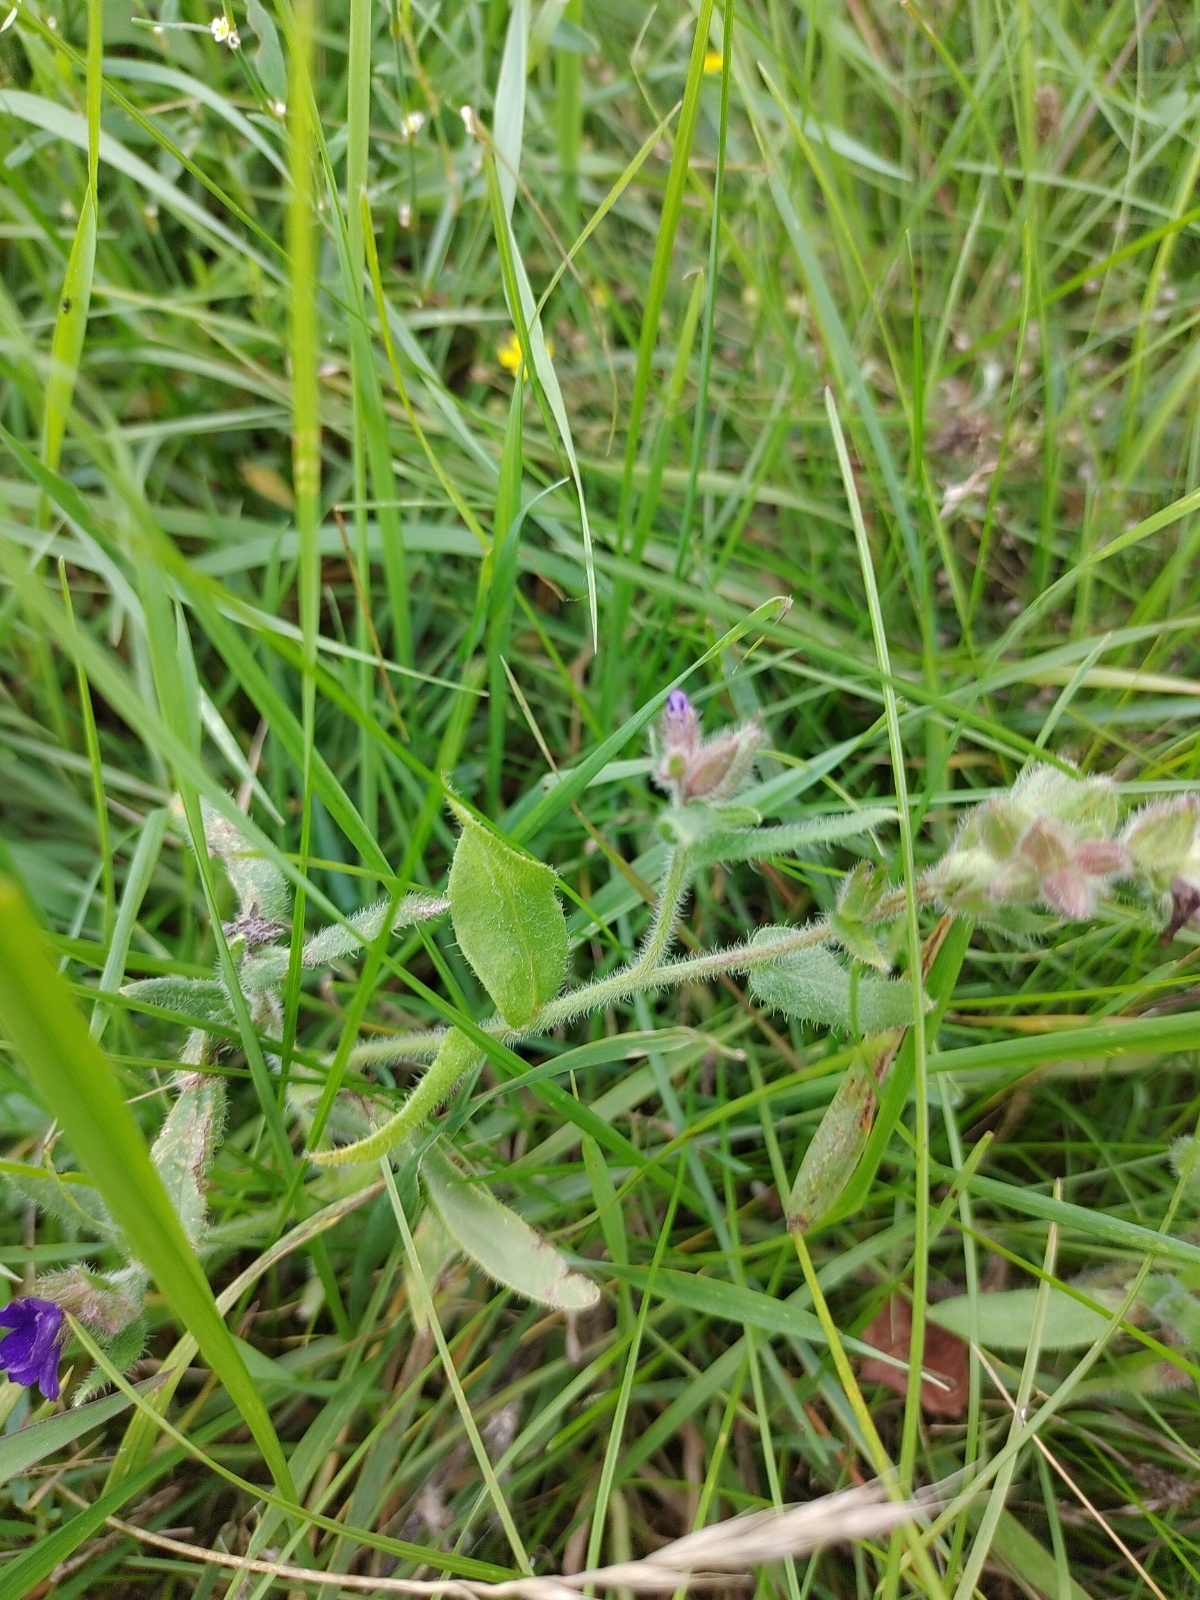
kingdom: Plantae
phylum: Tracheophyta
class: Magnoliopsida
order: Boraginales
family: Boraginaceae
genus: Anchusa
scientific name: Anchusa officinalis
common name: Alkanet
